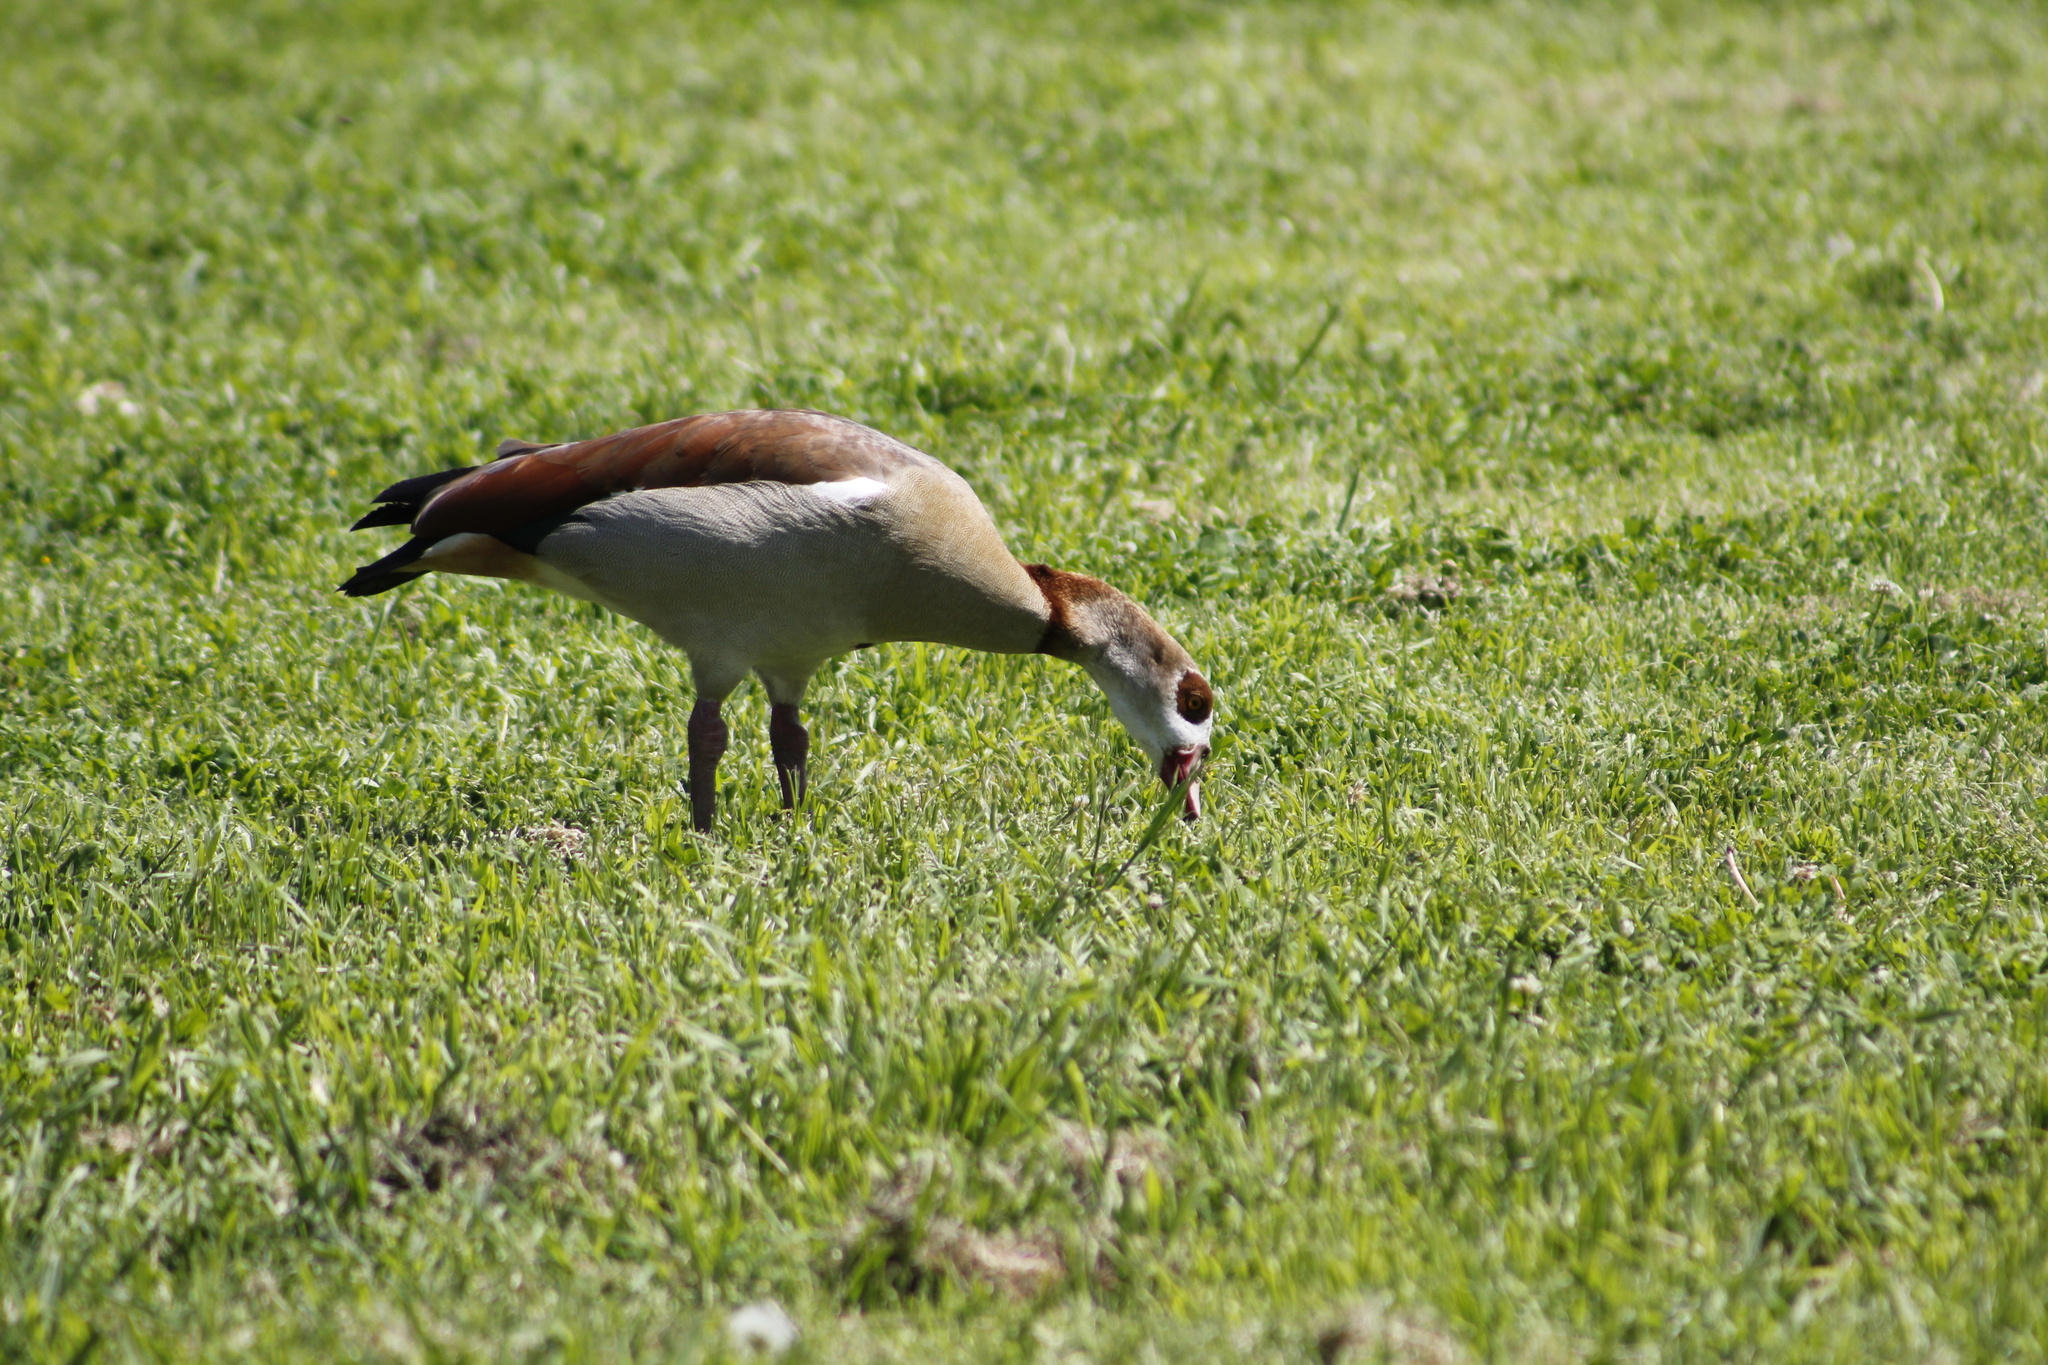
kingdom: Animalia
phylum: Chordata
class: Aves
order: Anseriformes
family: Anatidae
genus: Alopochen
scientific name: Alopochen aegyptiaca
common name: Egyptian goose
